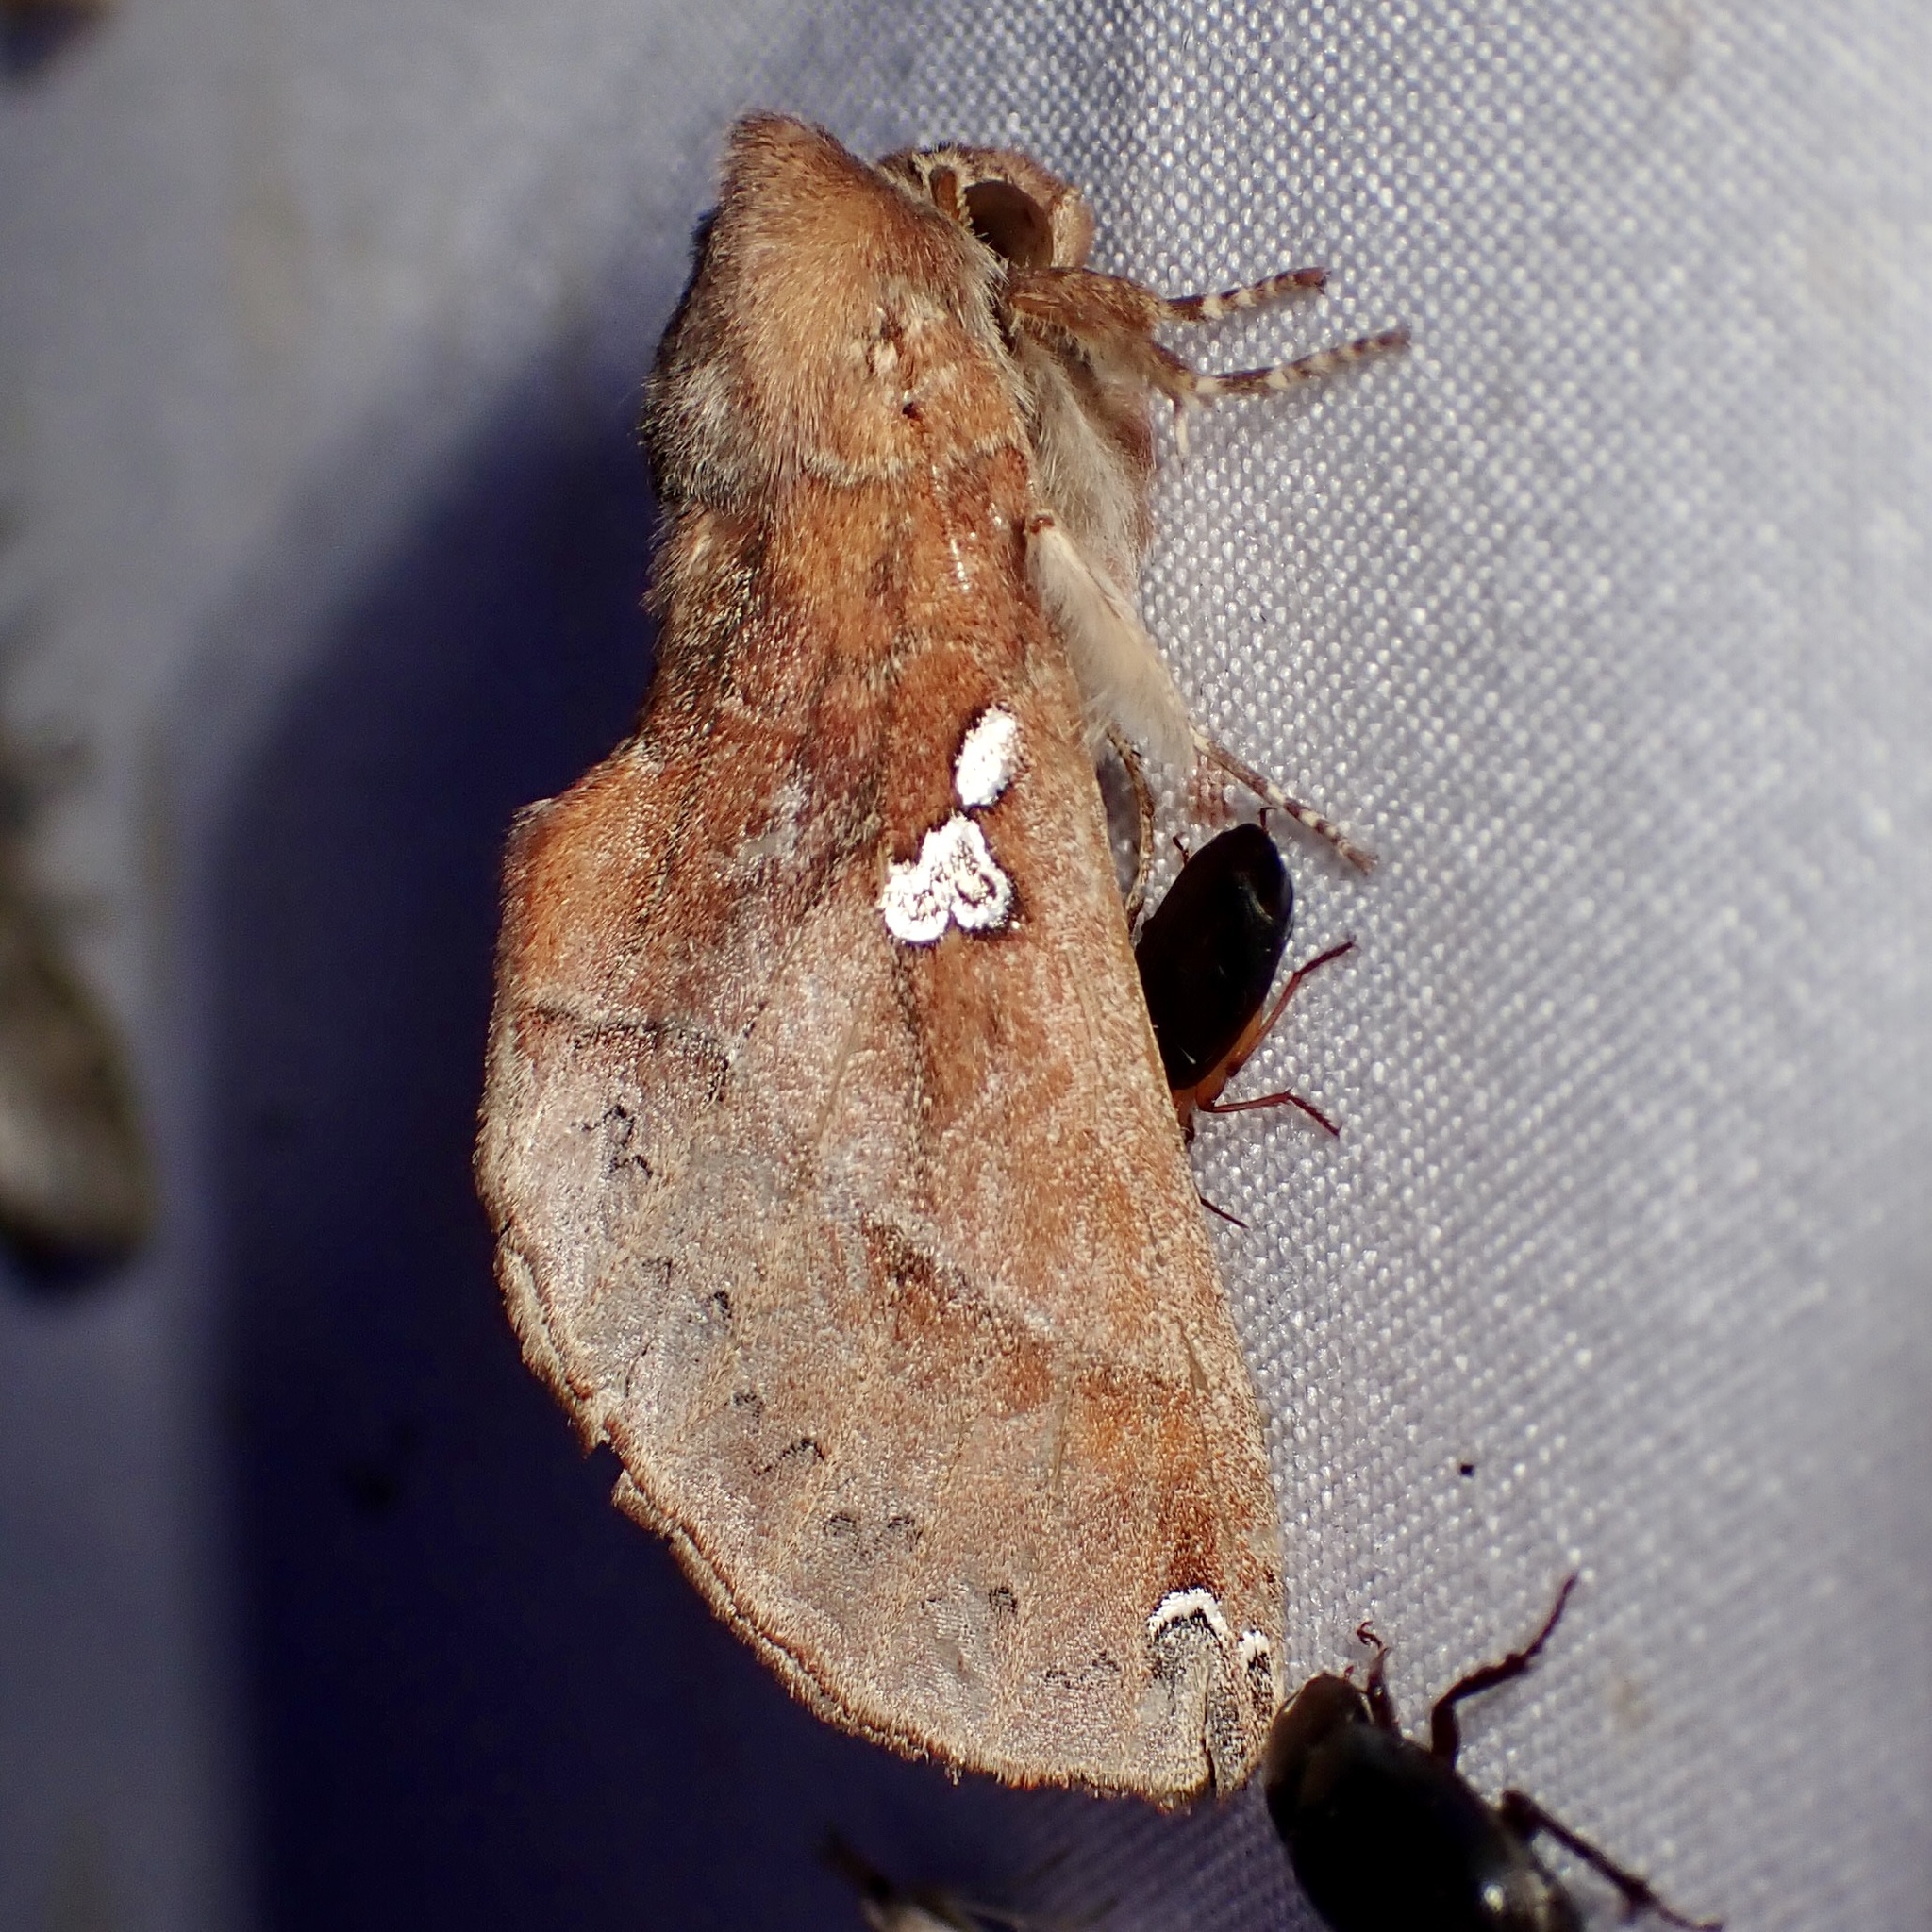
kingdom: Animalia
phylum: Arthropoda
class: Insecta
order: Lepidoptera
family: Notodontidae
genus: Pseudhapigia
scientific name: Pseudhapigia brunnea
